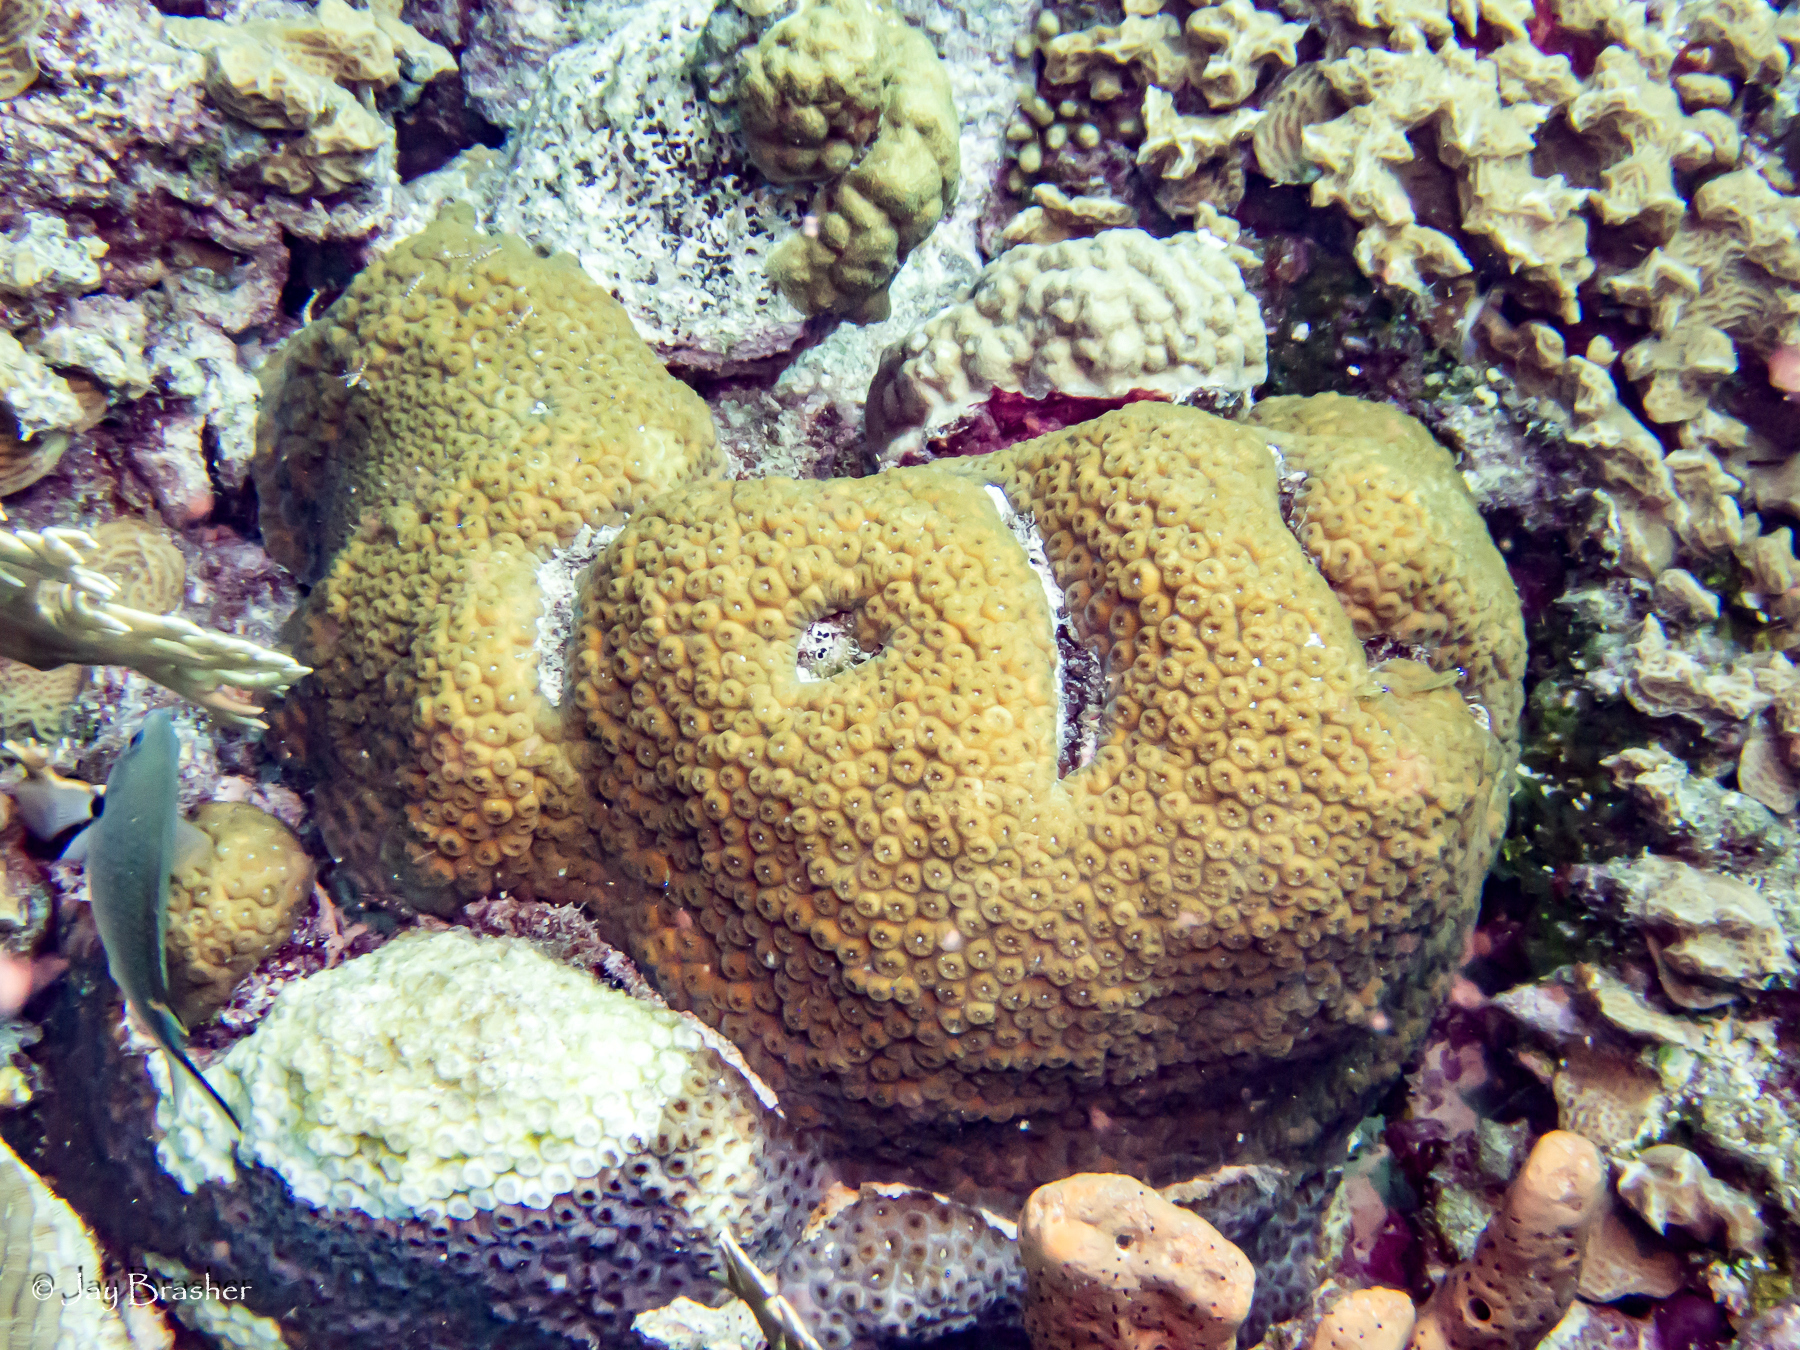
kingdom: Animalia
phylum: Cnidaria
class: Anthozoa
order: Scleractinia
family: Montastraeidae
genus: Montastraea
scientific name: Montastraea cavernosa
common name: Great star coral
